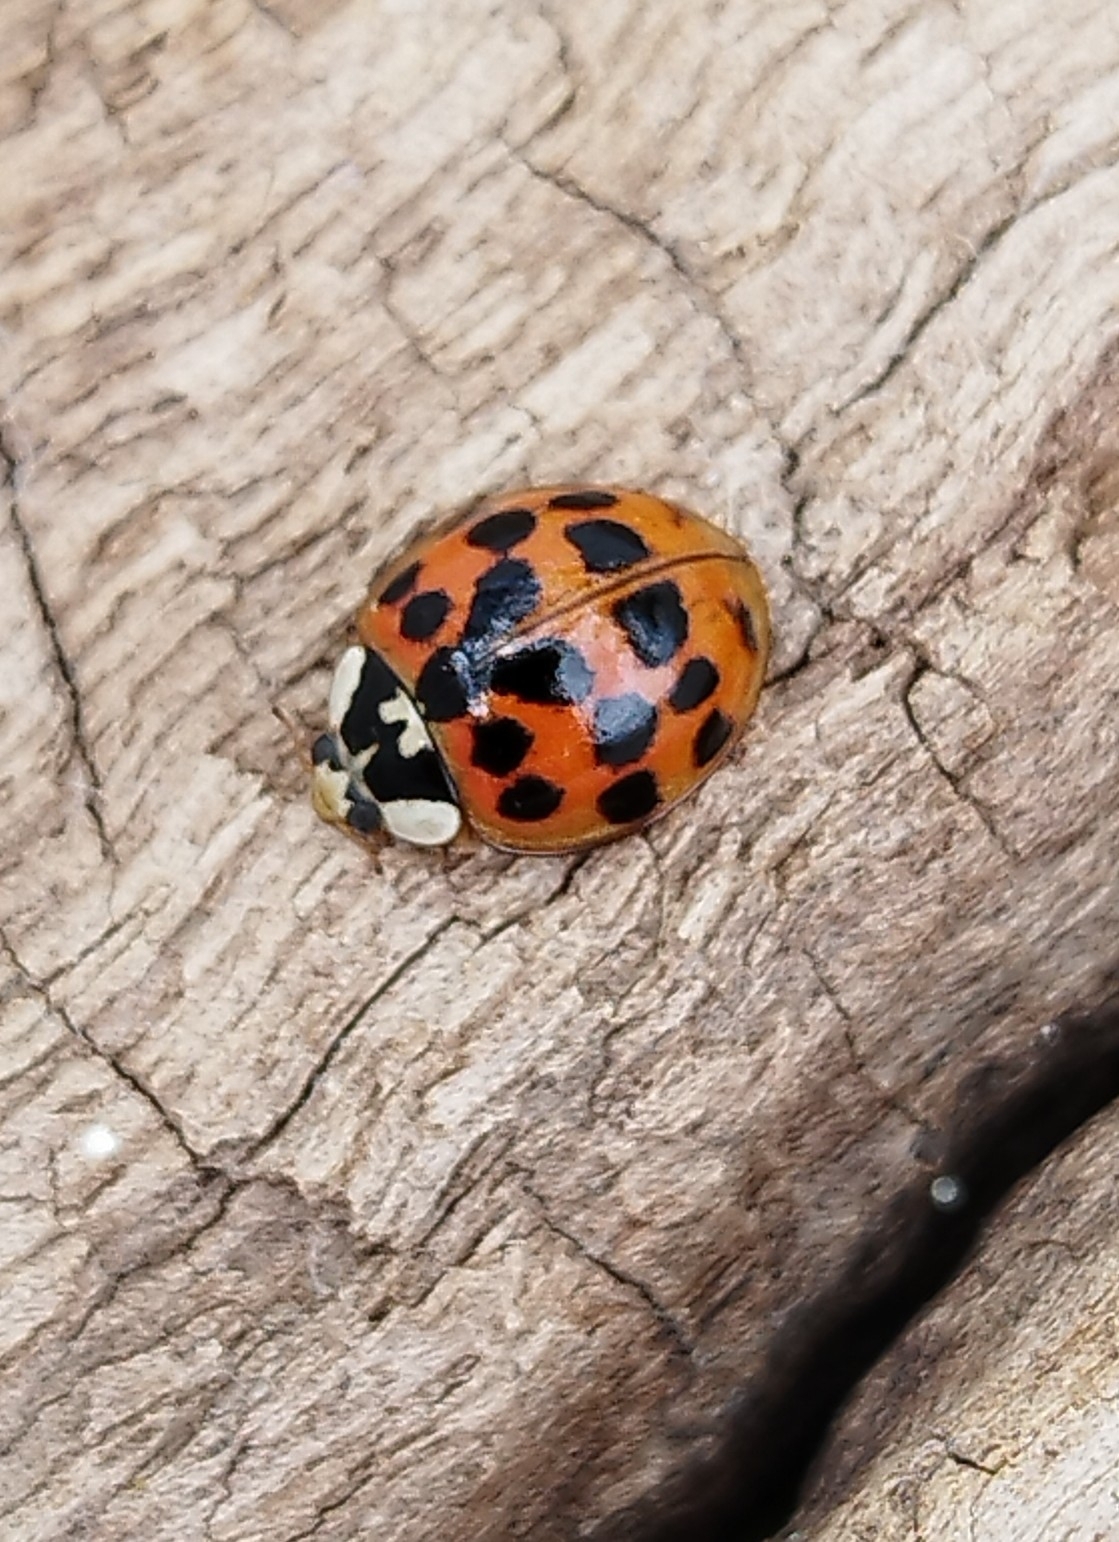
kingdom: Animalia
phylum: Arthropoda
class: Insecta
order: Coleoptera
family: Coccinellidae
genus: Harmonia
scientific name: Harmonia axyridis
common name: Harlequin ladybird
